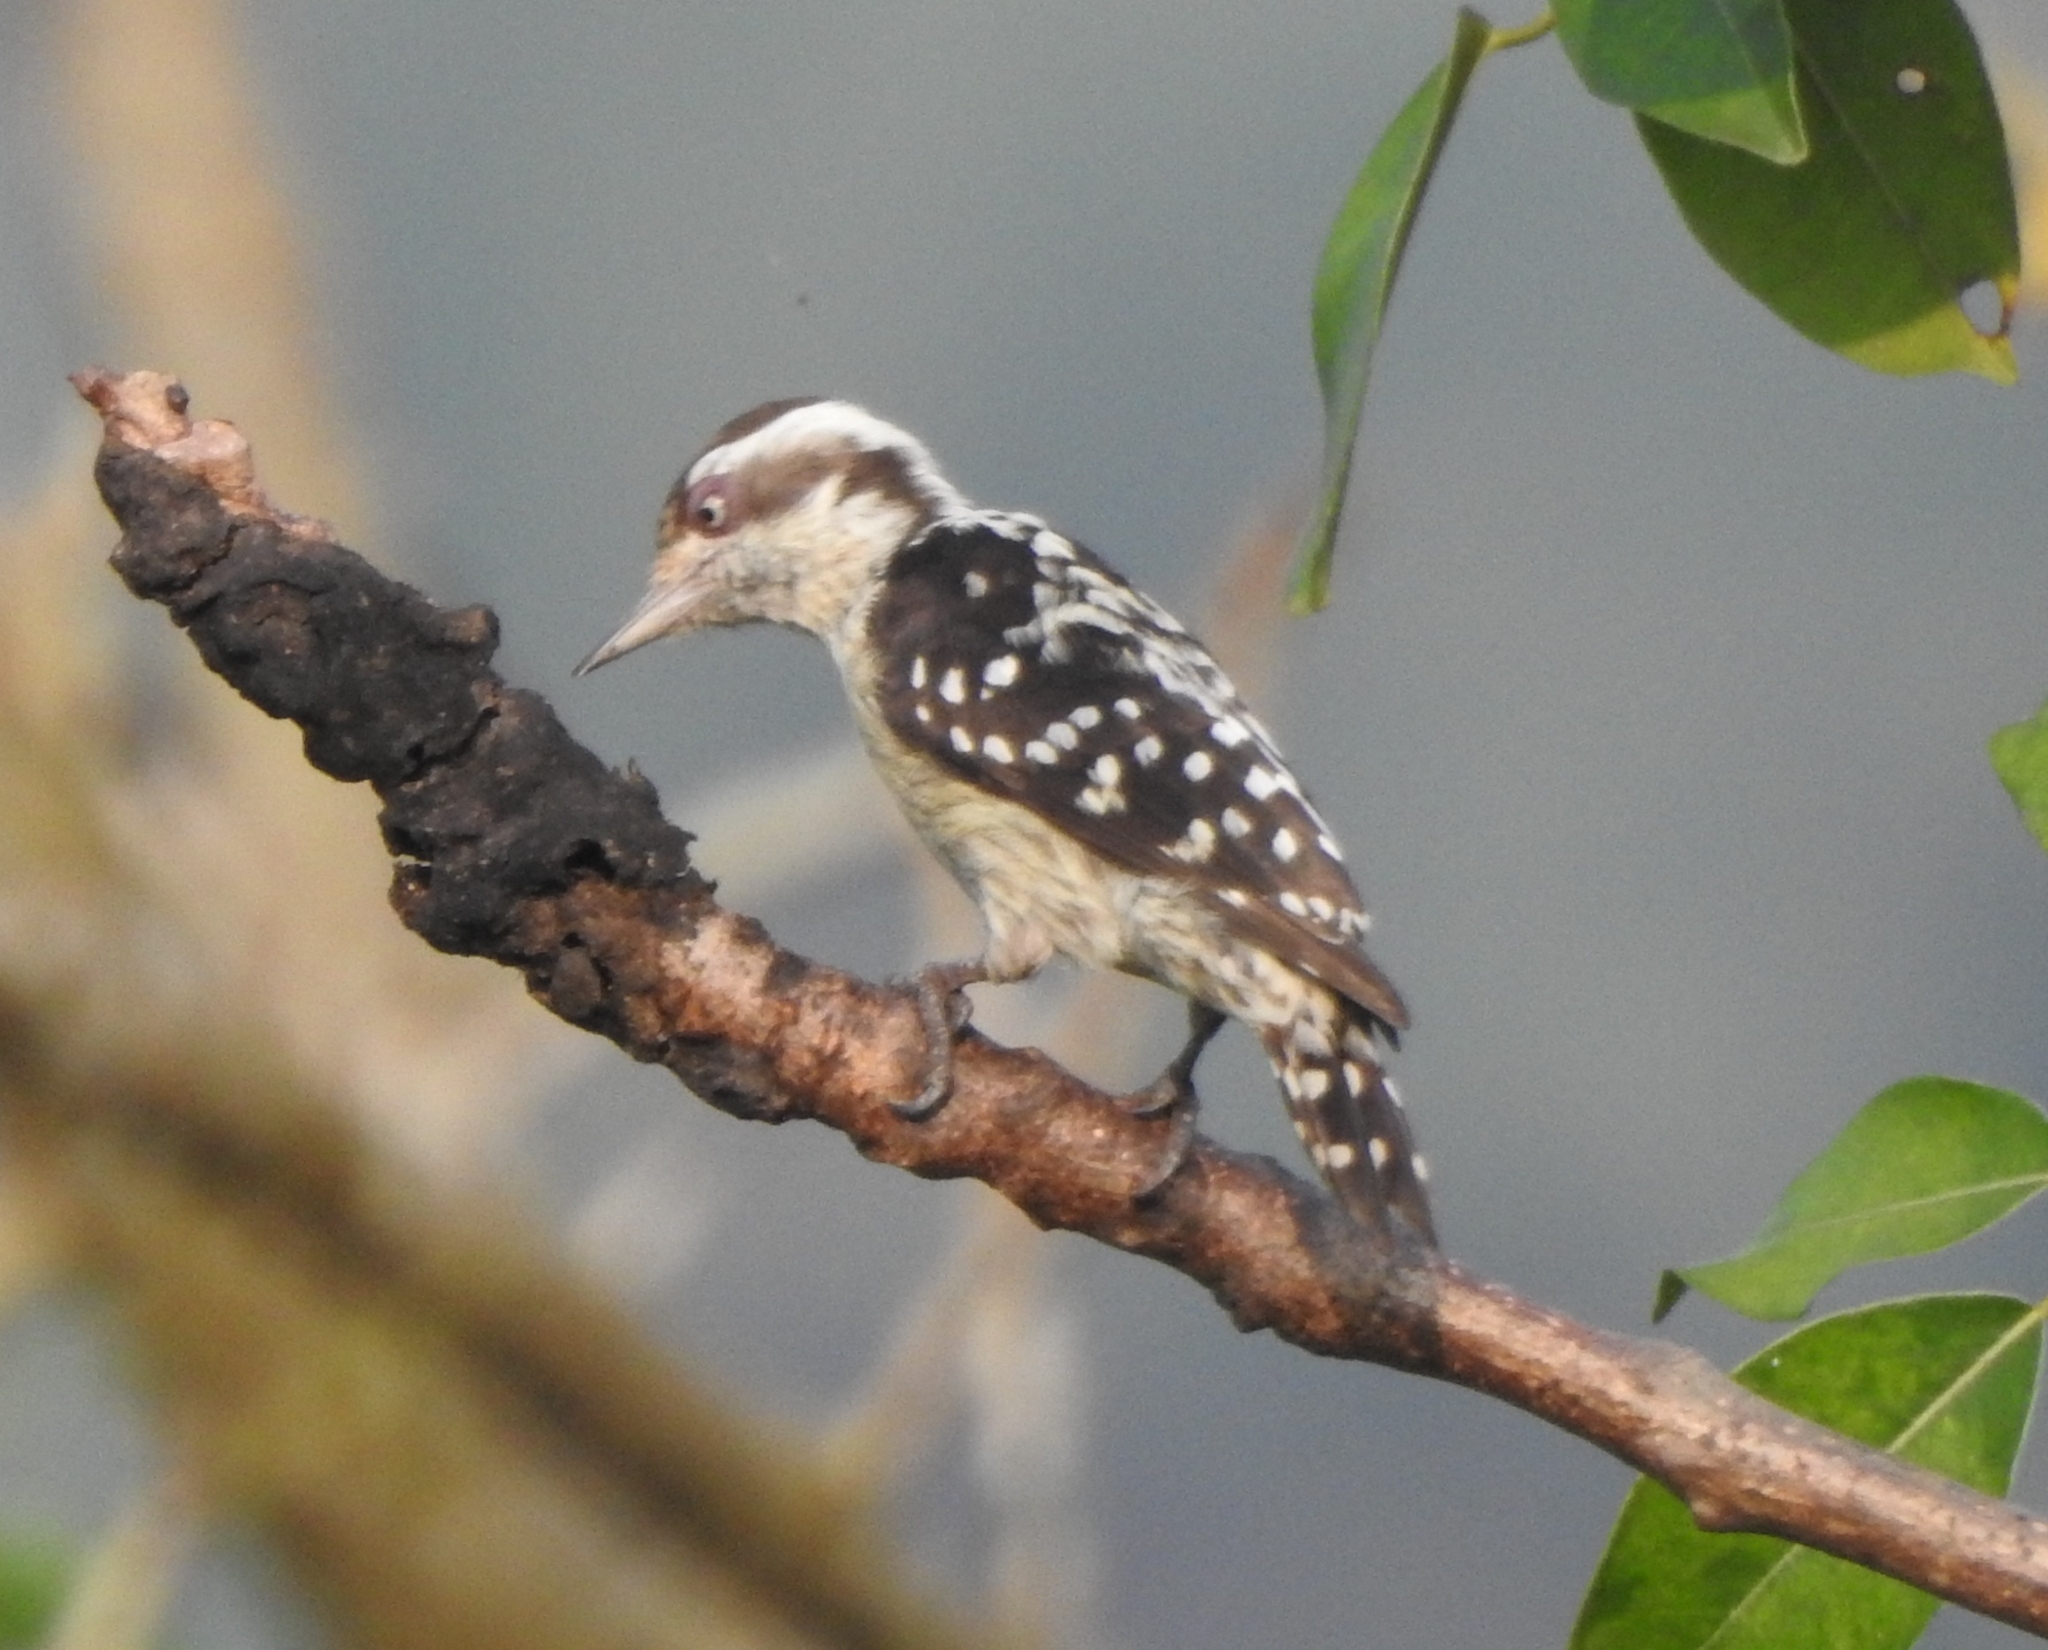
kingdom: Animalia
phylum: Chordata
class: Aves
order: Piciformes
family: Picidae
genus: Yungipicus
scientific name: Yungipicus nanus
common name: Brown-capped pygmy woodpecker
